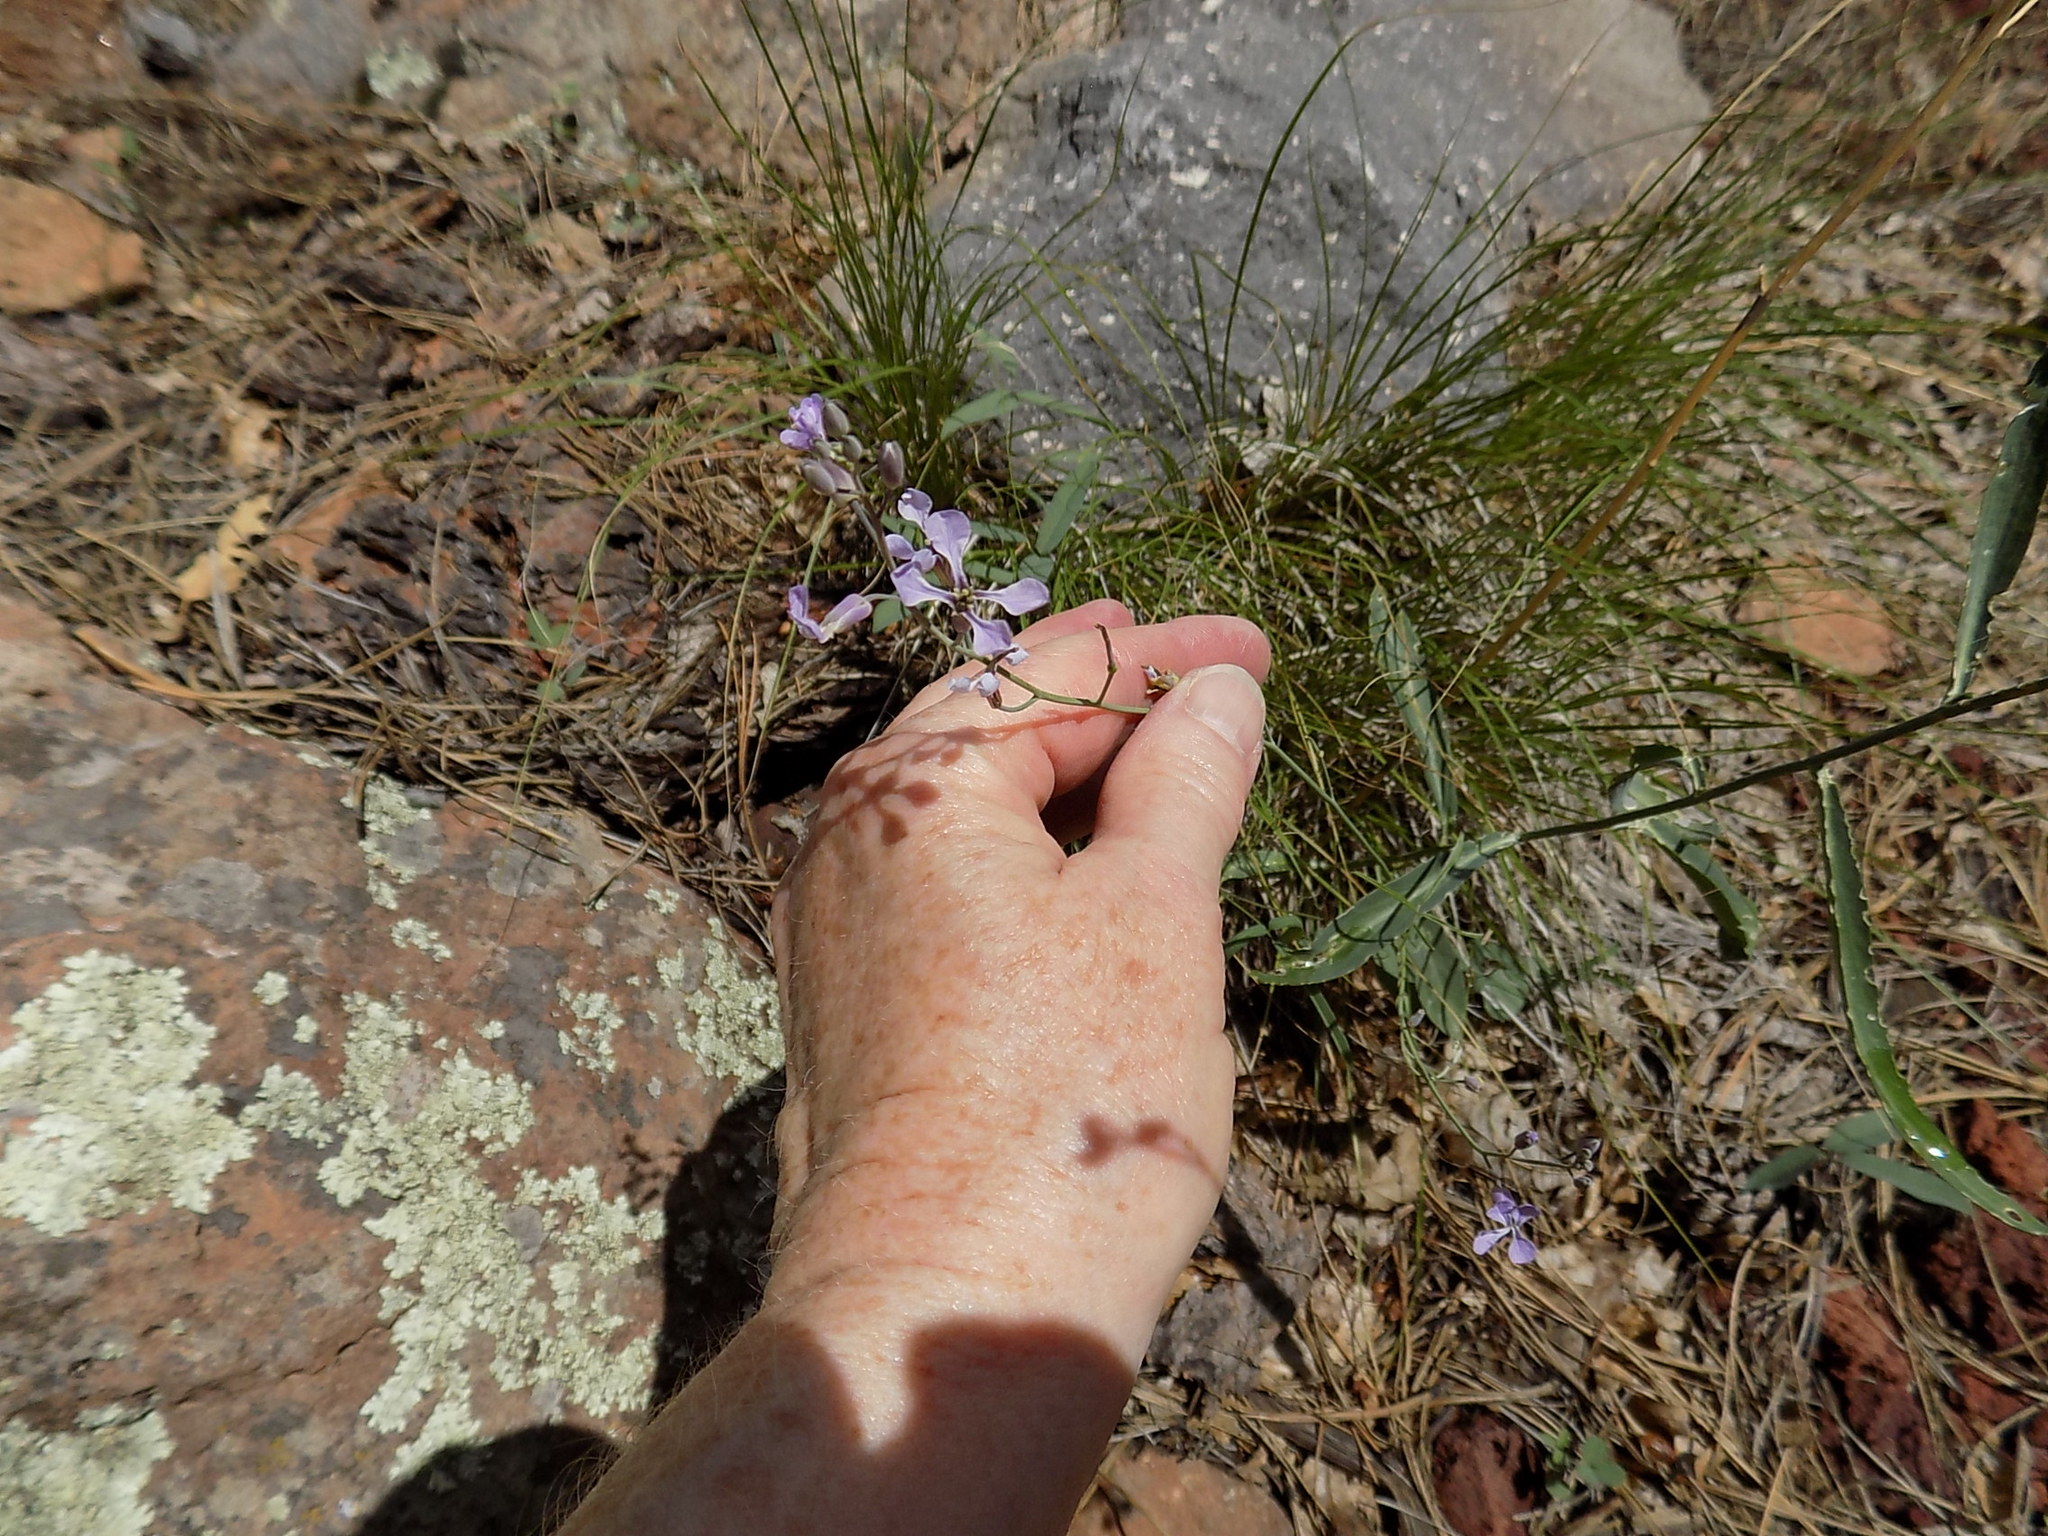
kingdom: Plantae
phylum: Tracheophyta
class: Magnoliopsida
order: Brassicales
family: Brassicaceae
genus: Hesperidanthus
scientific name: Hesperidanthus linearifolius
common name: Slim-leaf plains mustard
